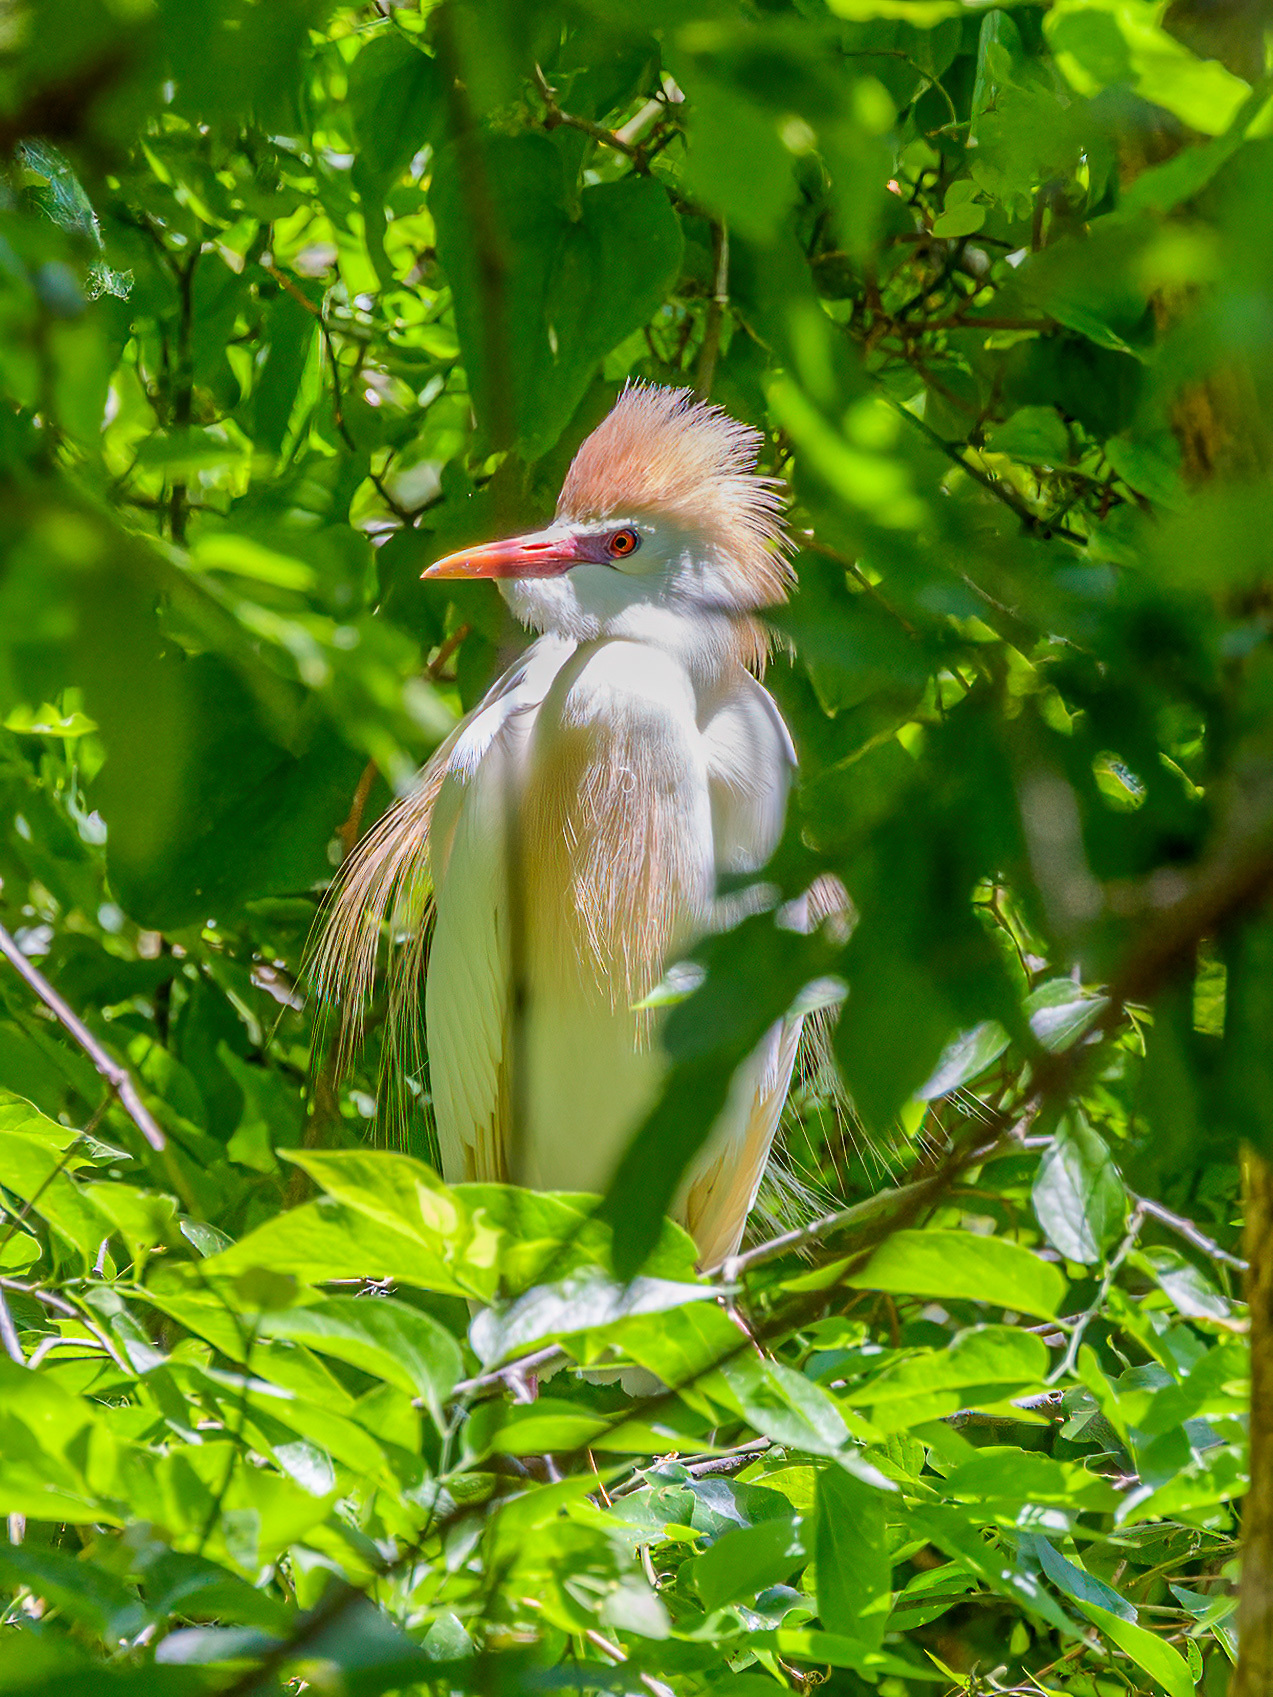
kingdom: Animalia
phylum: Chordata
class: Aves
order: Pelecaniformes
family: Ardeidae
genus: Bubulcus
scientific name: Bubulcus ibis
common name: Cattle egret
